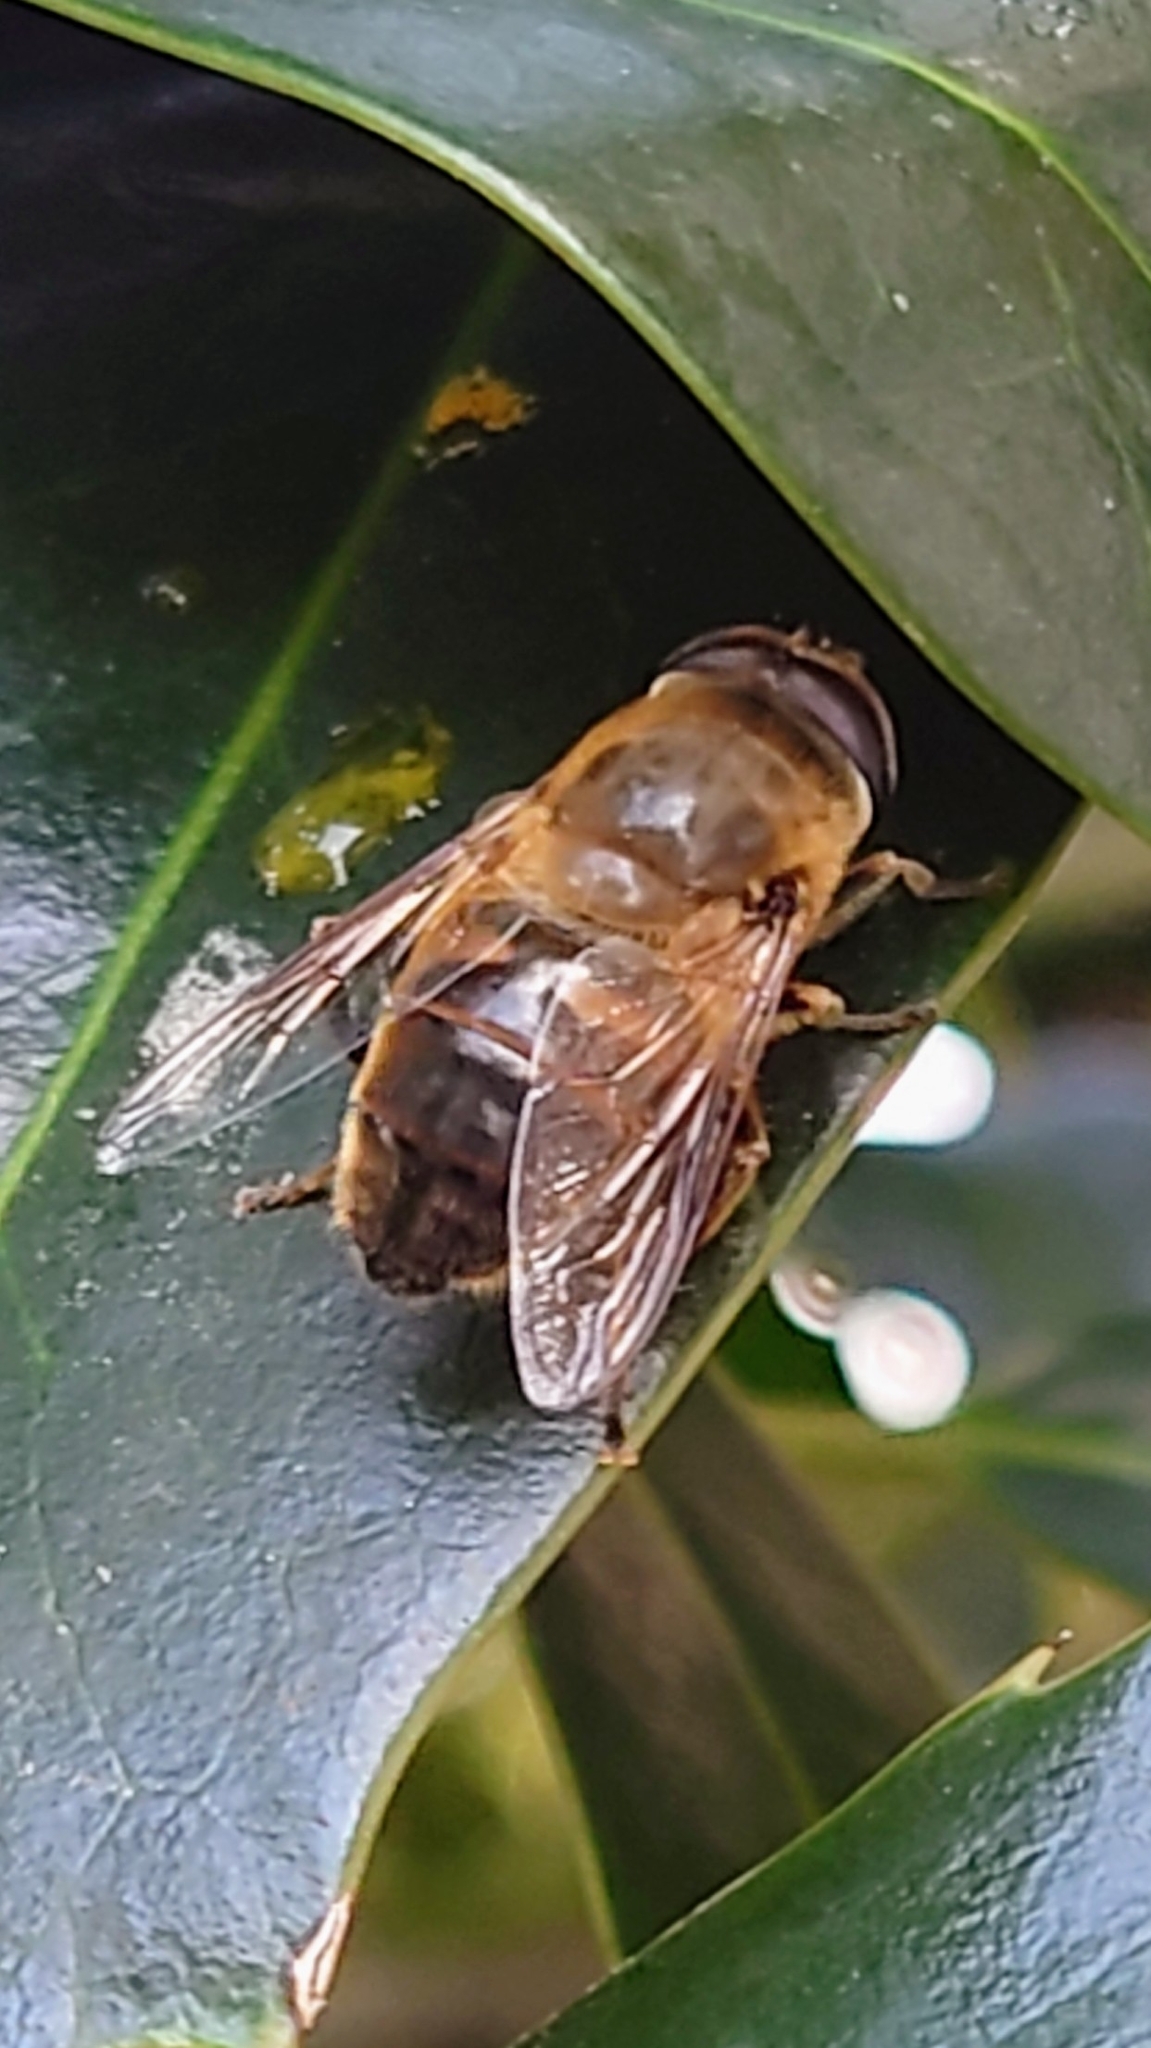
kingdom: Animalia
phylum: Arthropoda
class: Insecta
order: Diptera
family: Syrphidae
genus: Eristalis
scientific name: Eristalis tenax
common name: Drone fly
